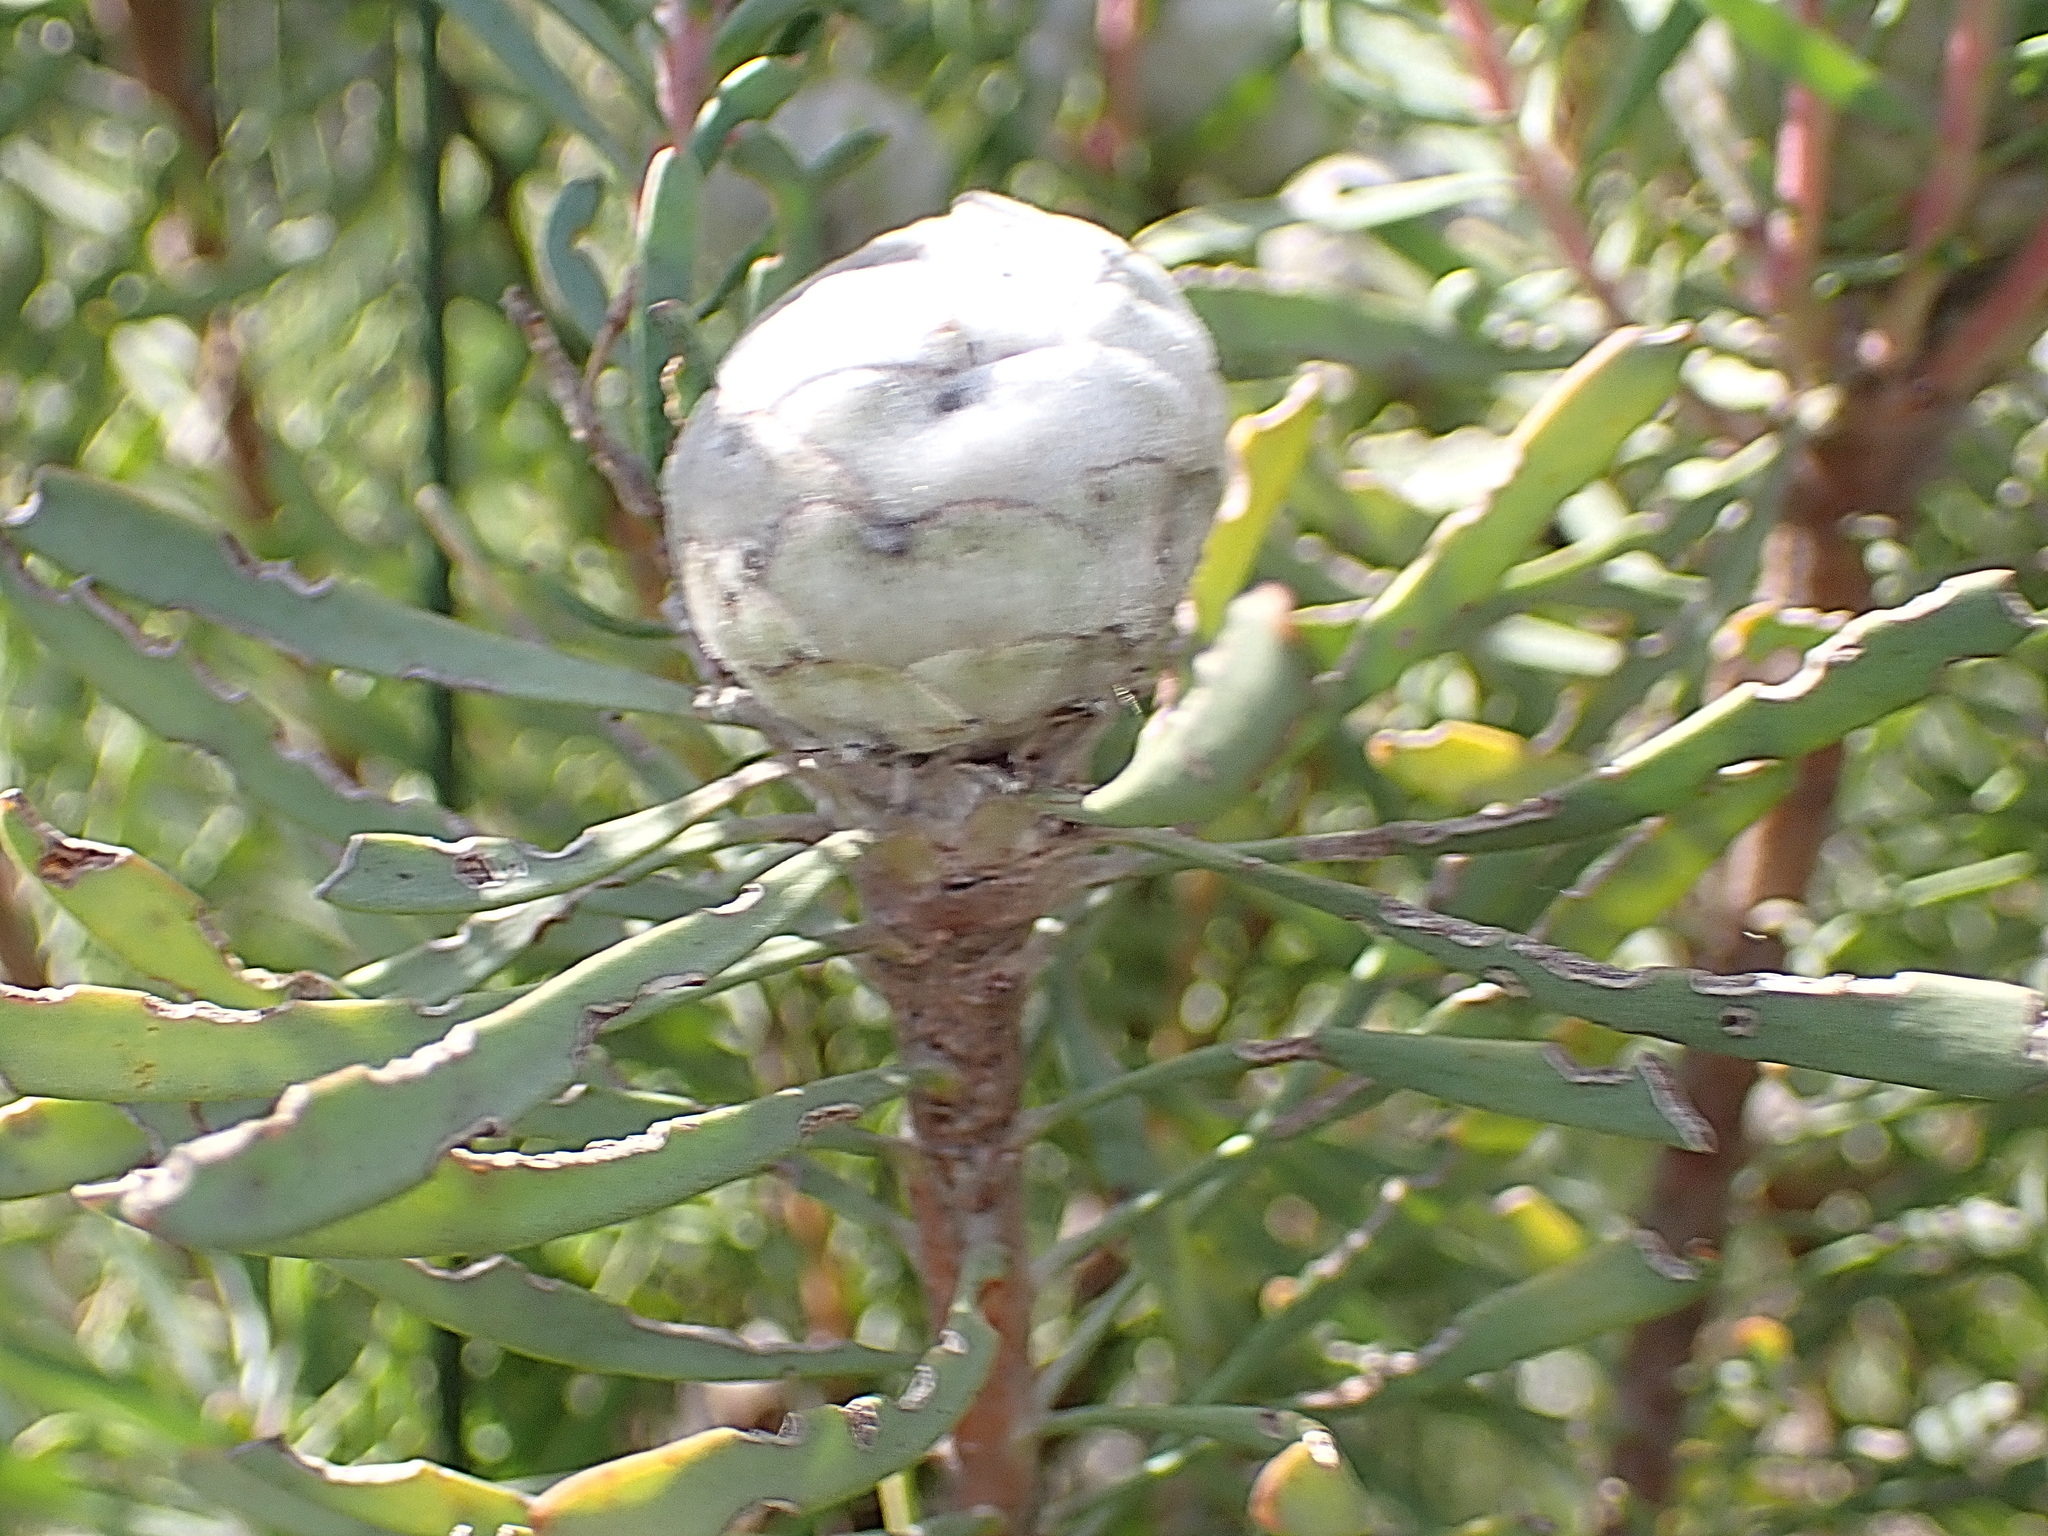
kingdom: Plantae
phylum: Tracheophyta
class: Magnoliopsida
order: Proteales
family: Proteaceae
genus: Leucadendron
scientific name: Leucadendron galpinii
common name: Hairless conebush
